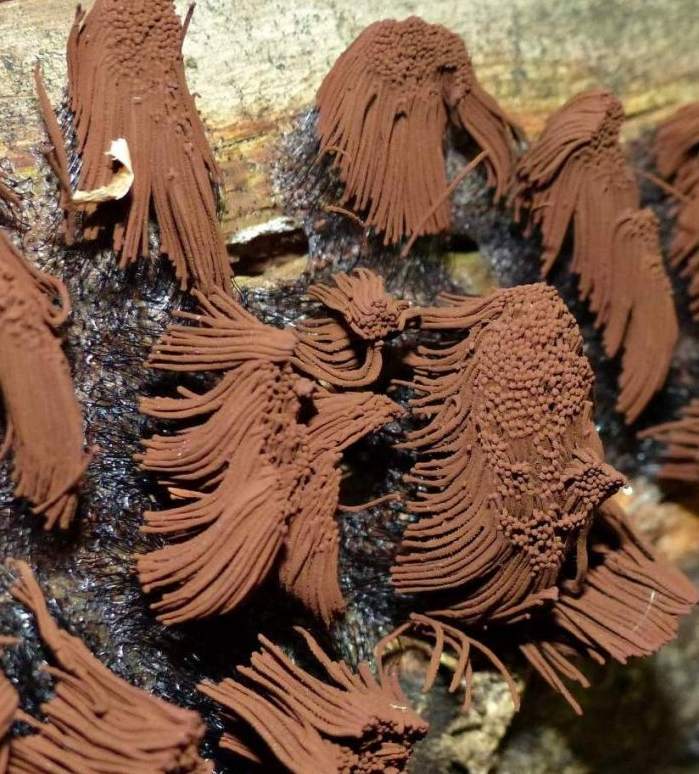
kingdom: Protozoa
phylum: Mycetozoa
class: Myxomycetes
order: Stemonitidales
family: Stemonitidaceae
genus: Stemonitis
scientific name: Stemonitis splendens
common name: Chocolate tube slime
